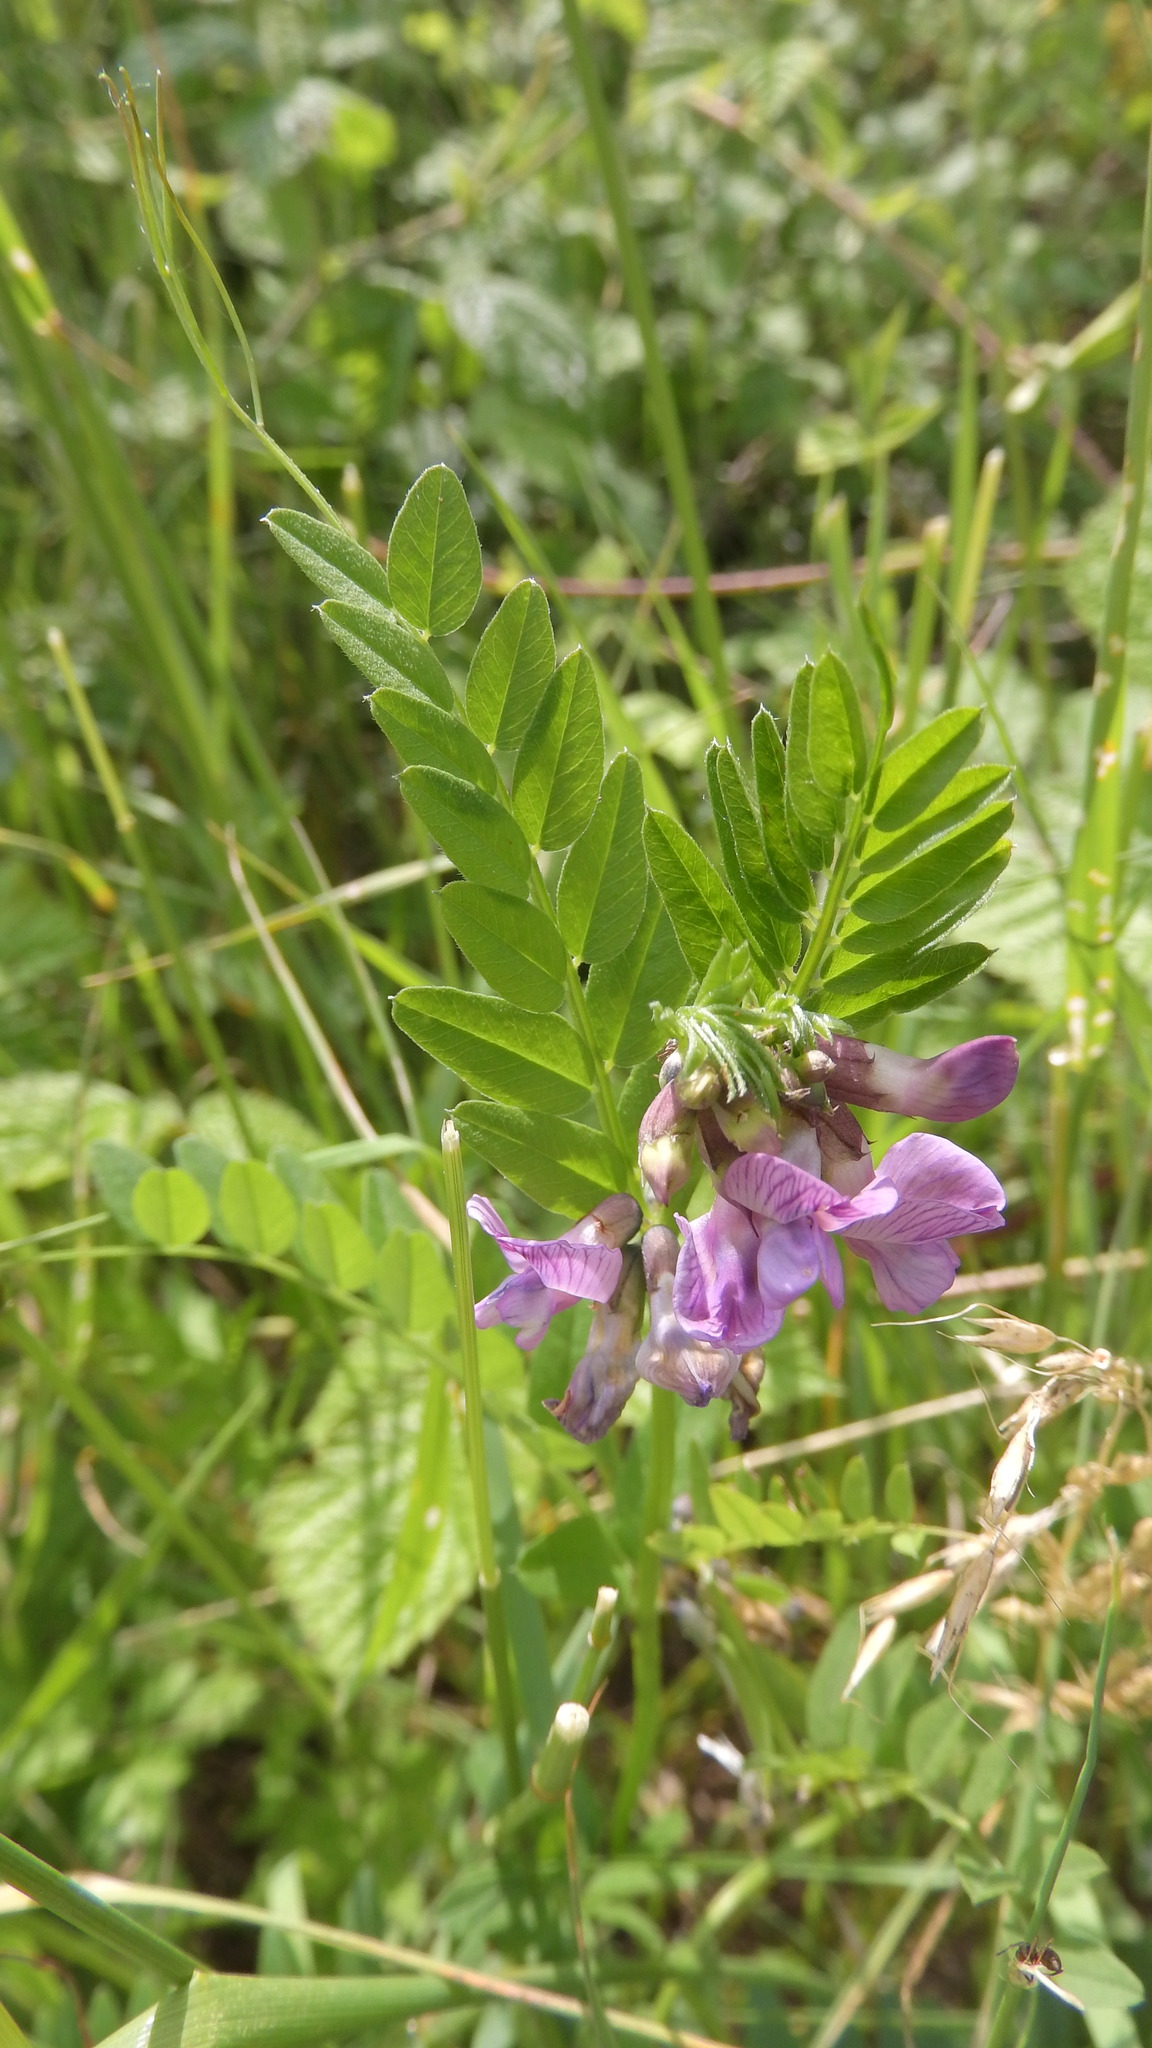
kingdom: Plantae
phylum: Tracheophyta
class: Magnoliopsida
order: Fabales
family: Fabaceae
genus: Vicia
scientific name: Vicia sepium
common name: Bush vetch
